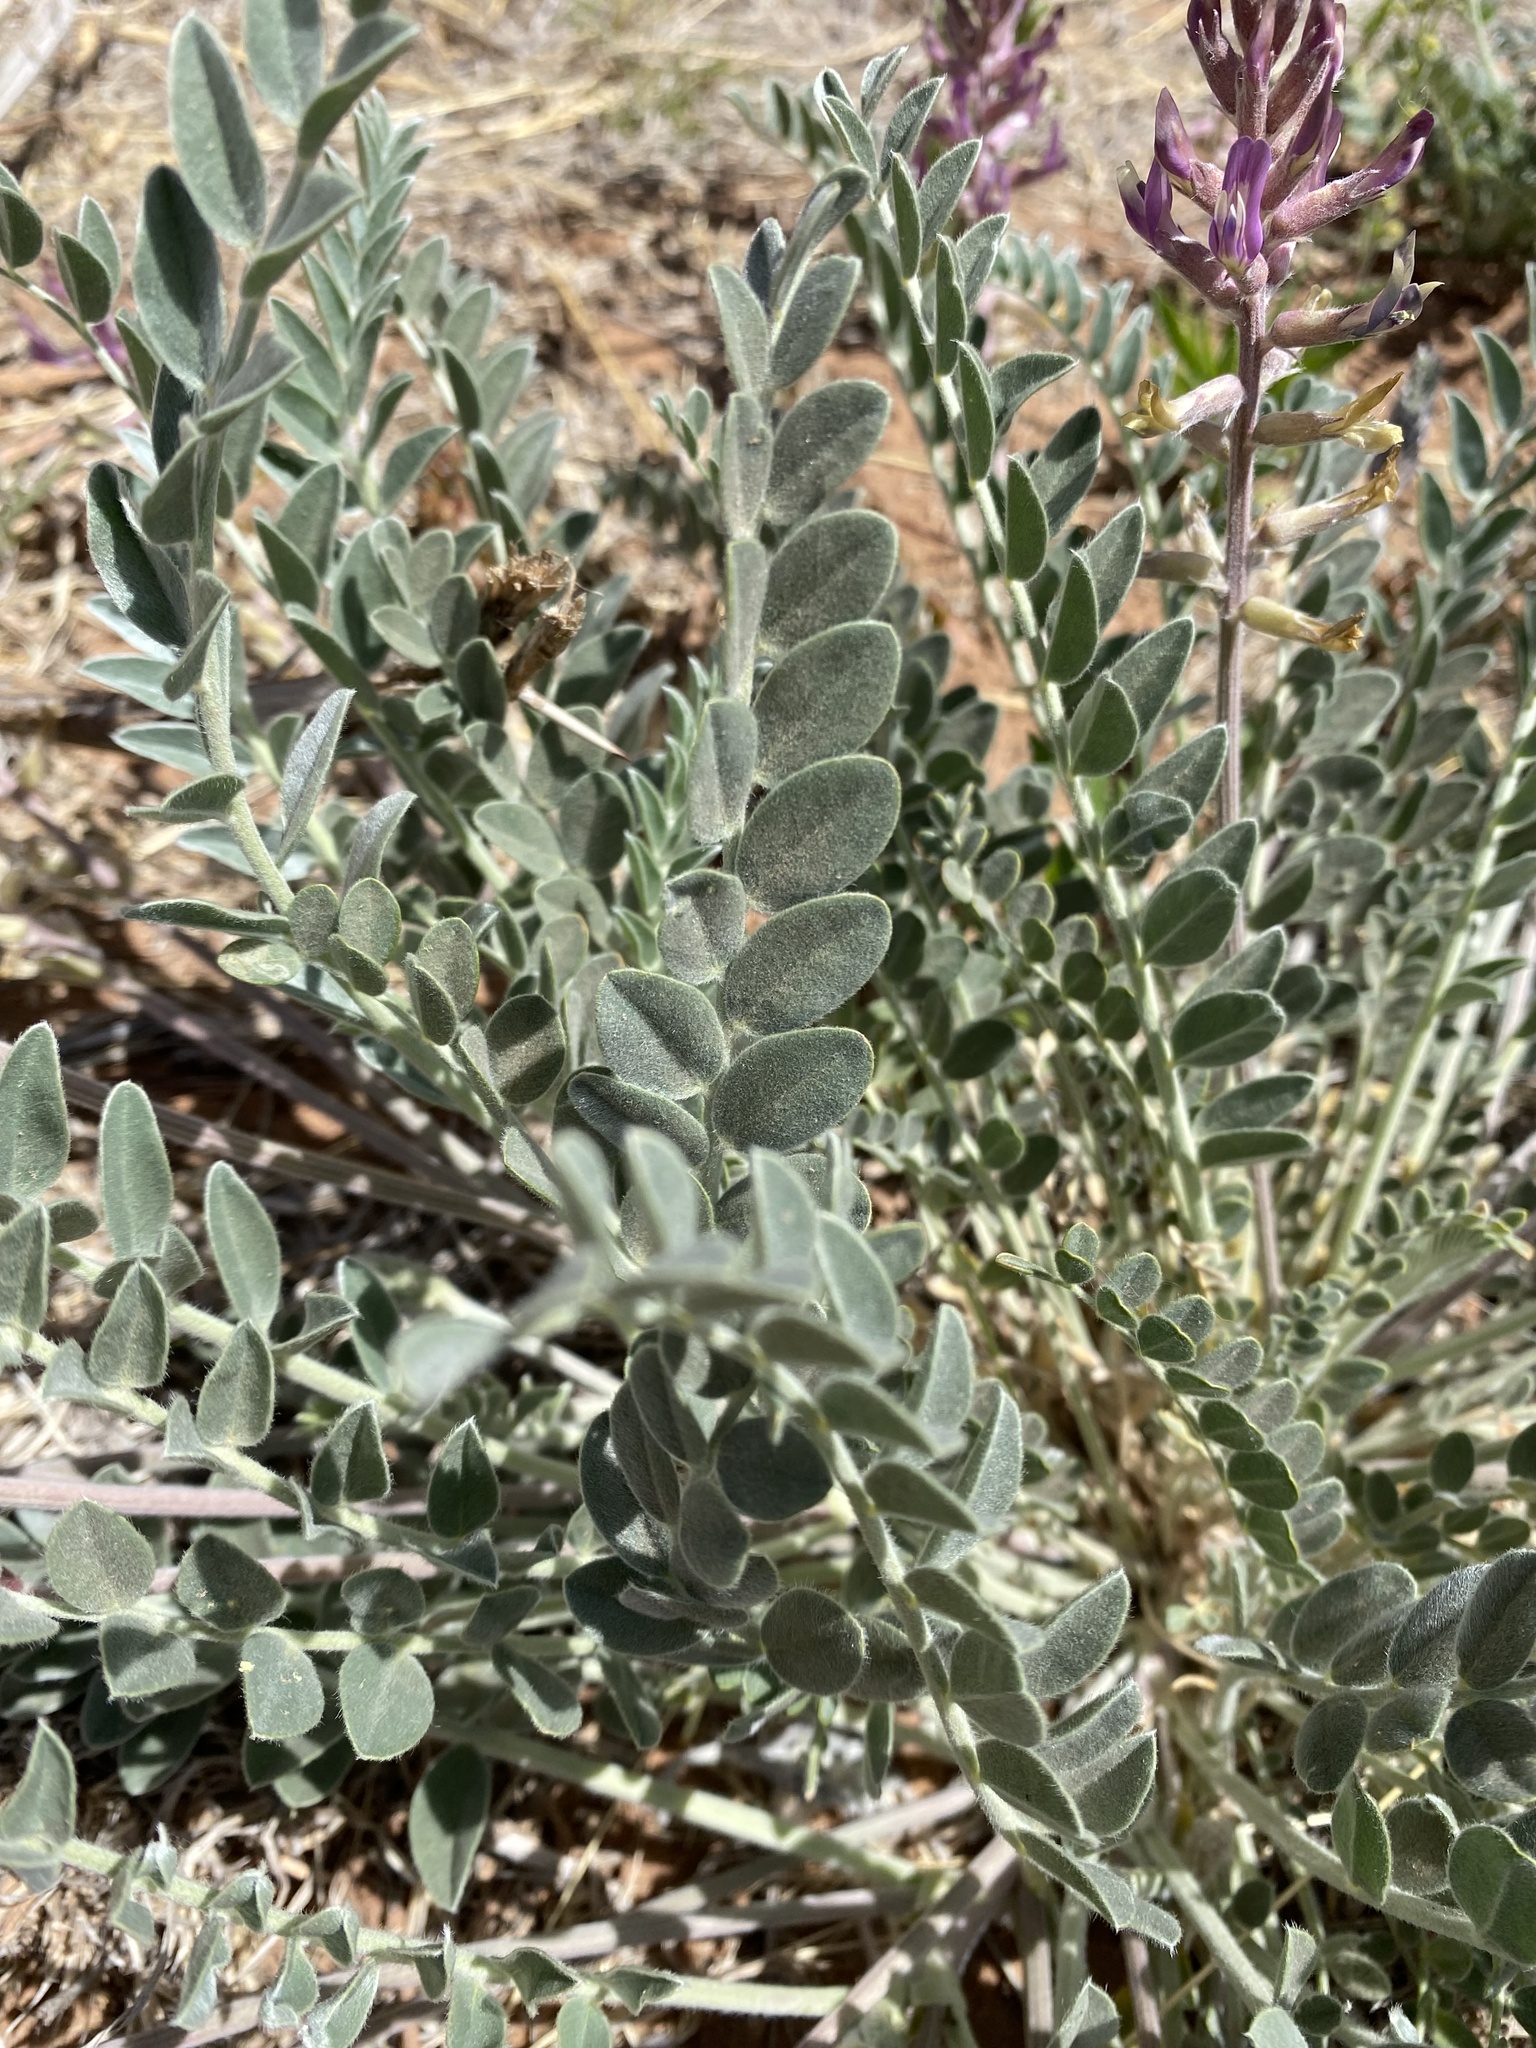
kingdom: Plantae
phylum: Tracheophyta
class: Magnoliopsida
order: Fabales
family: Fabaceae
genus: Astragalus
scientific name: Astragalus mollissimus
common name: Woolly locoweed
